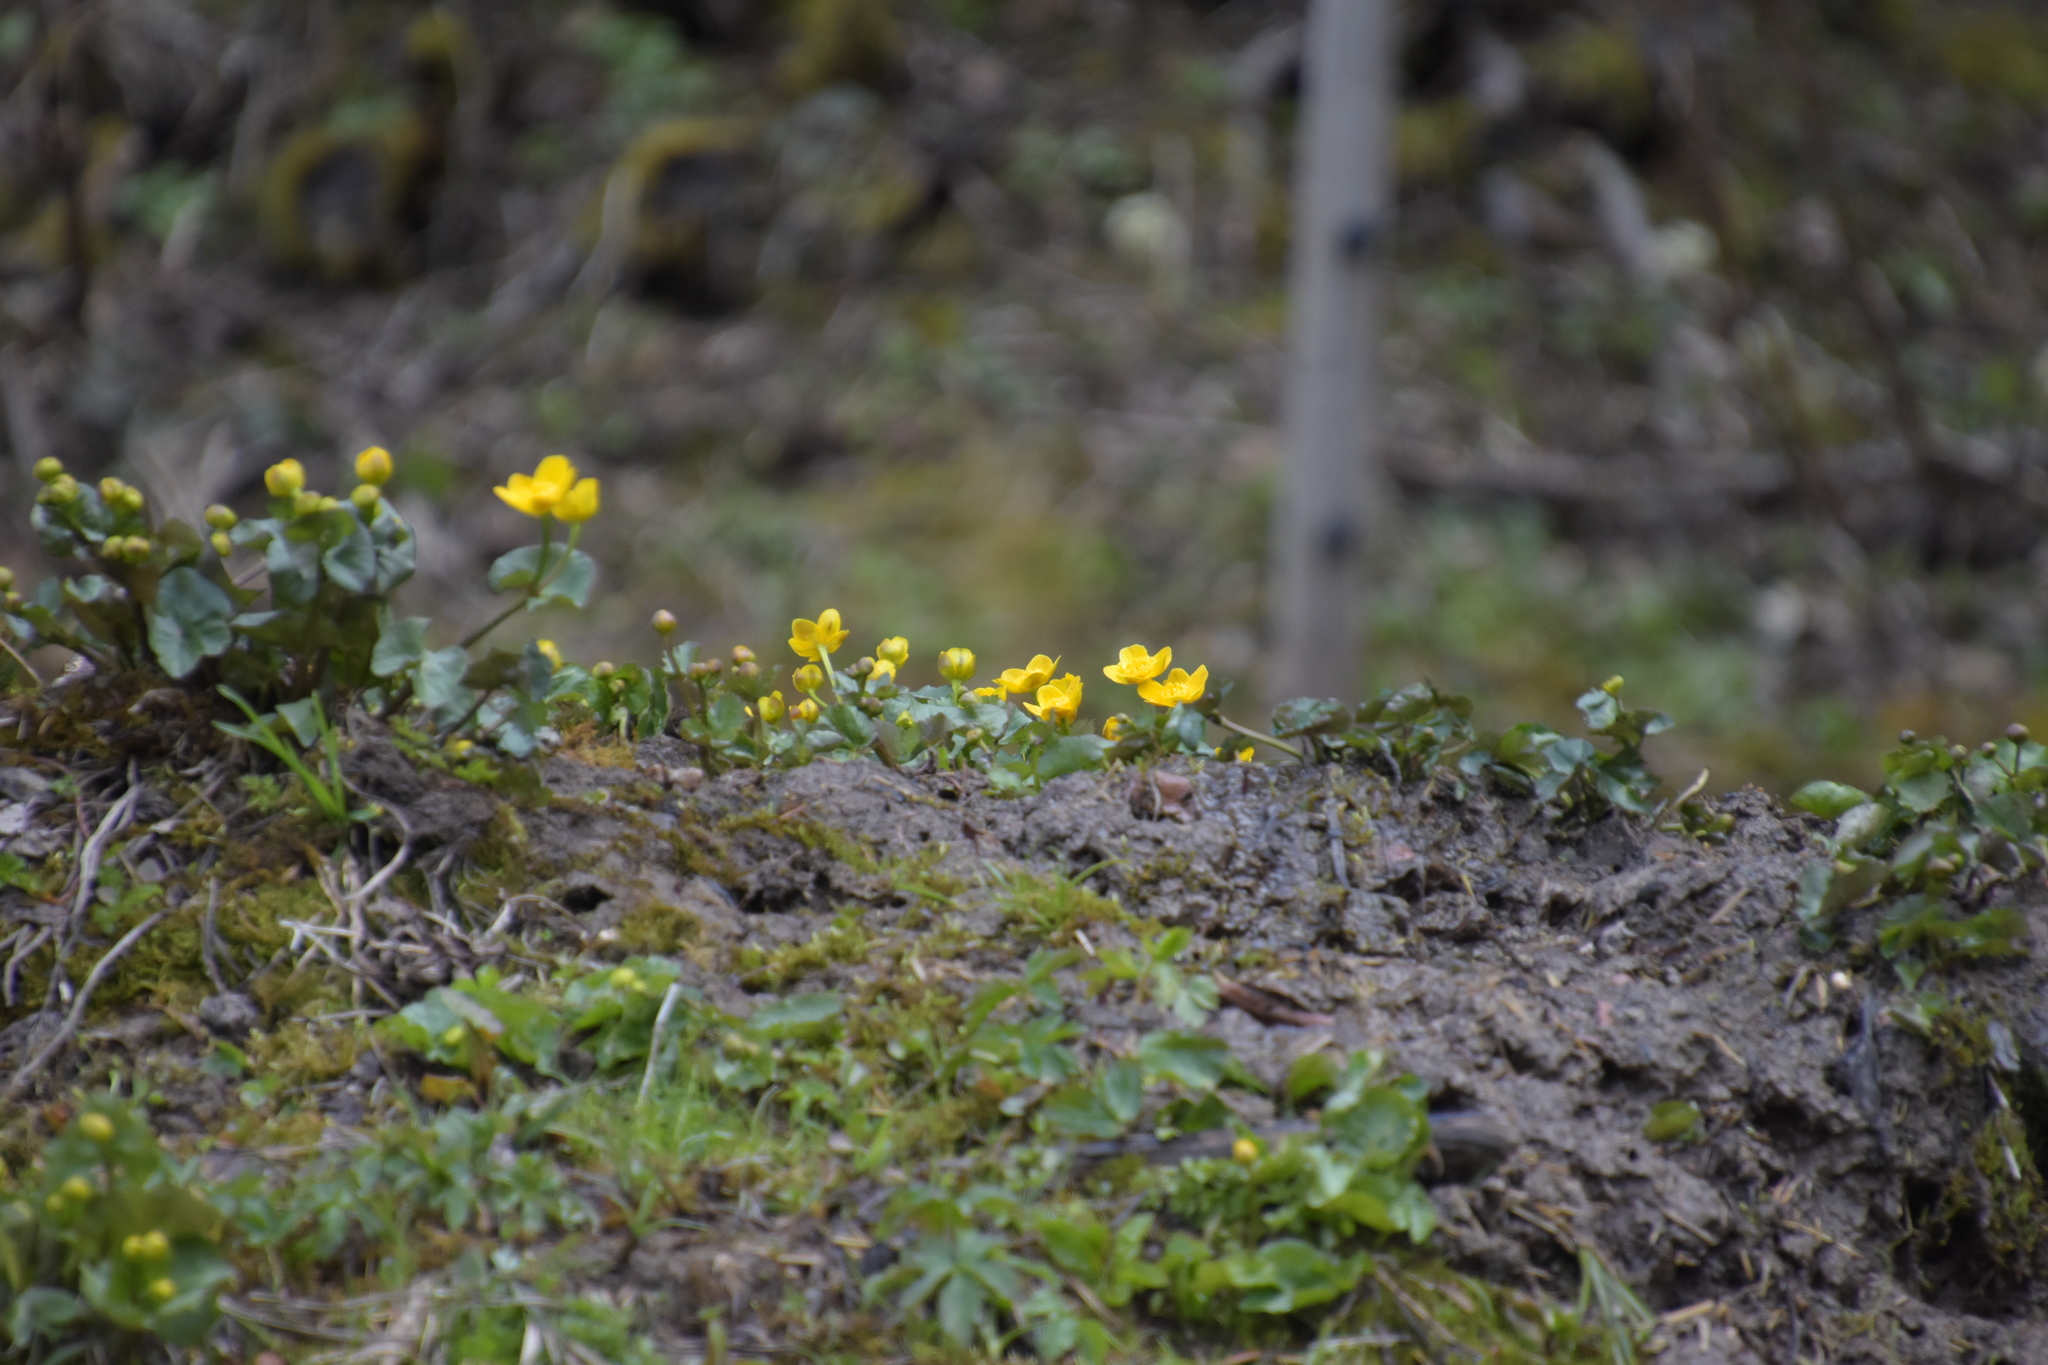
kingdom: Plantae
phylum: Tracheophyta
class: Magnoliopsida
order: Ranunculales
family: Ranunculaceae
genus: Caltha
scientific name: Caltha palustris
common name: Marsh marigold
